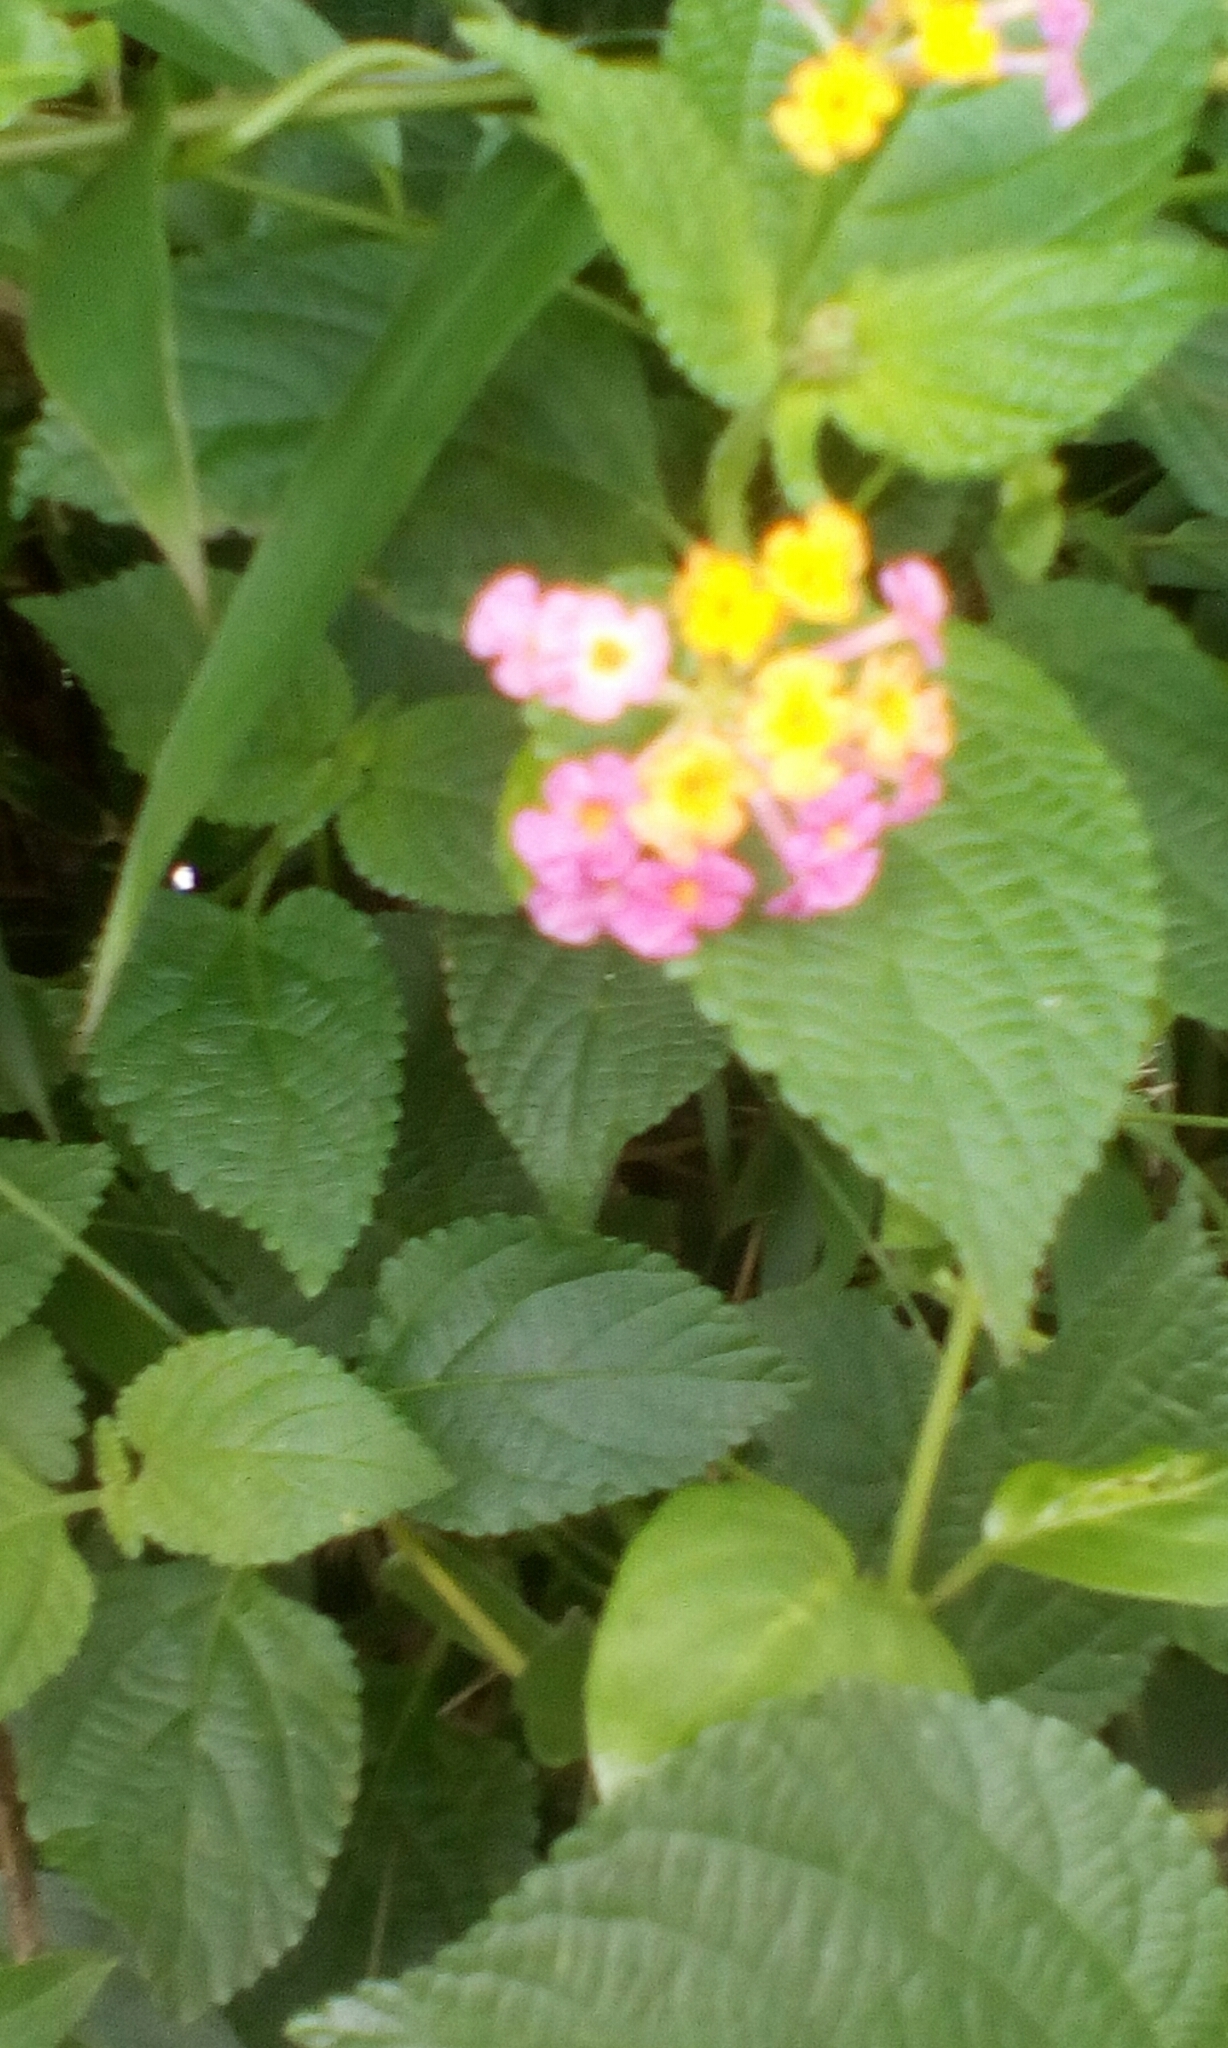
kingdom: Plantae
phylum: Tracheophyta
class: Magnoliopsida
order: Lamiales
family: Verbenaceae
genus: Lantana
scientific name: Lantana camara
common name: Lantana
